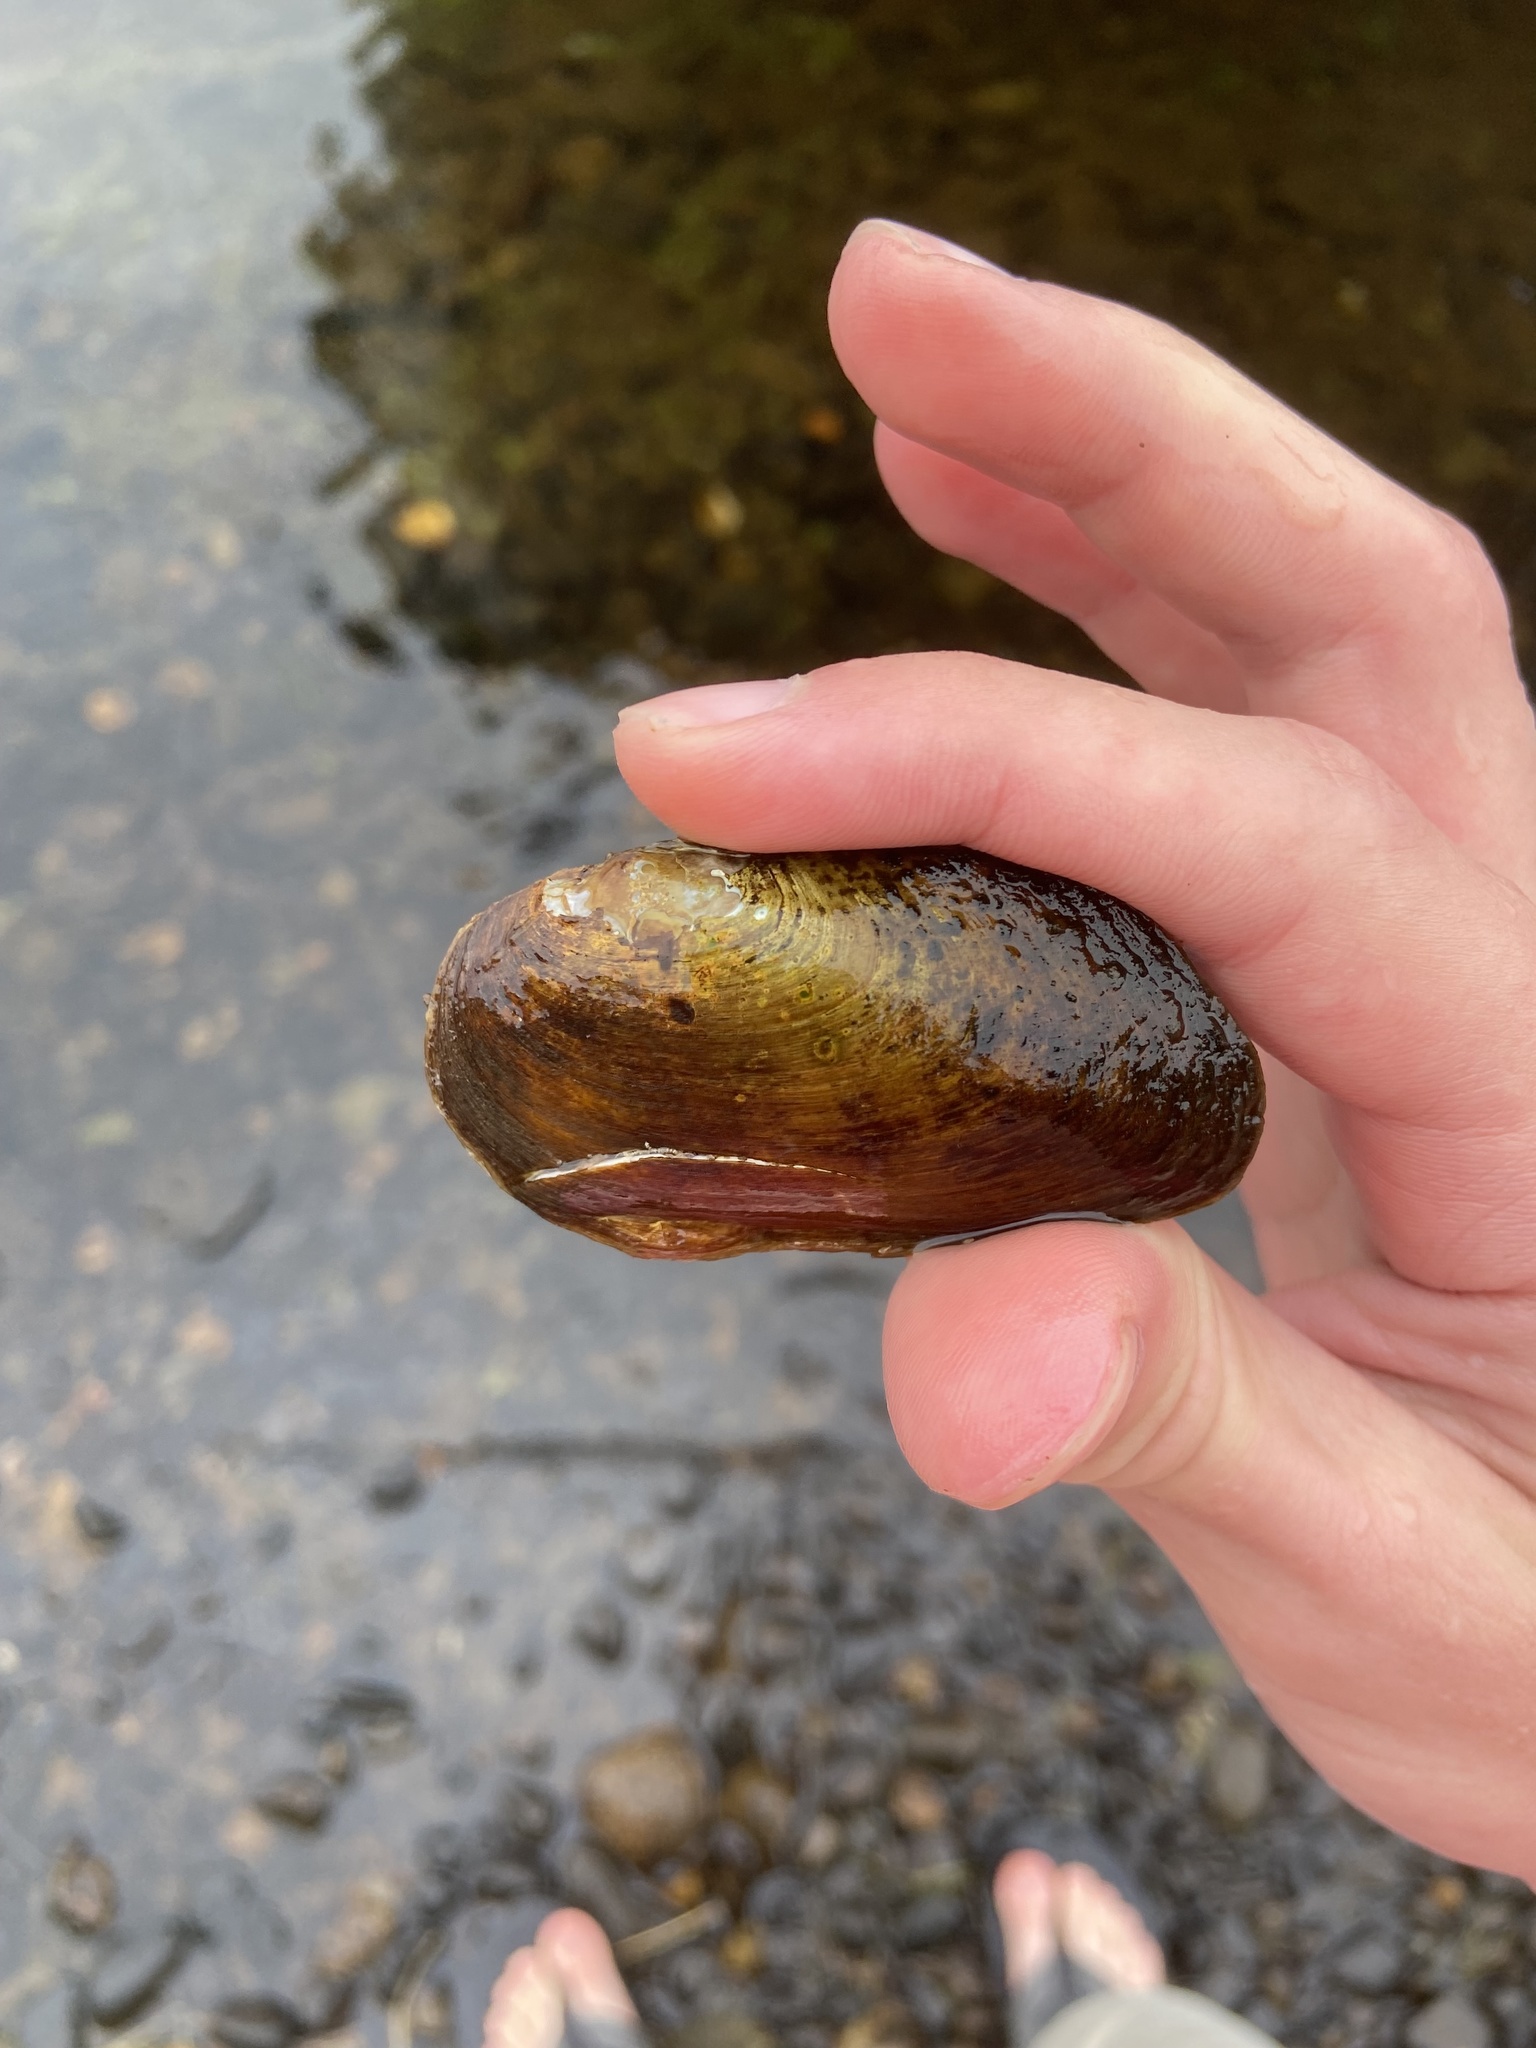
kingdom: Animalia
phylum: Mollusca
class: Bivalvia
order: Unionida
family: Unionidae
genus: Elliptio
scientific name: Elliptio complanata
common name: Eastern elliptio
